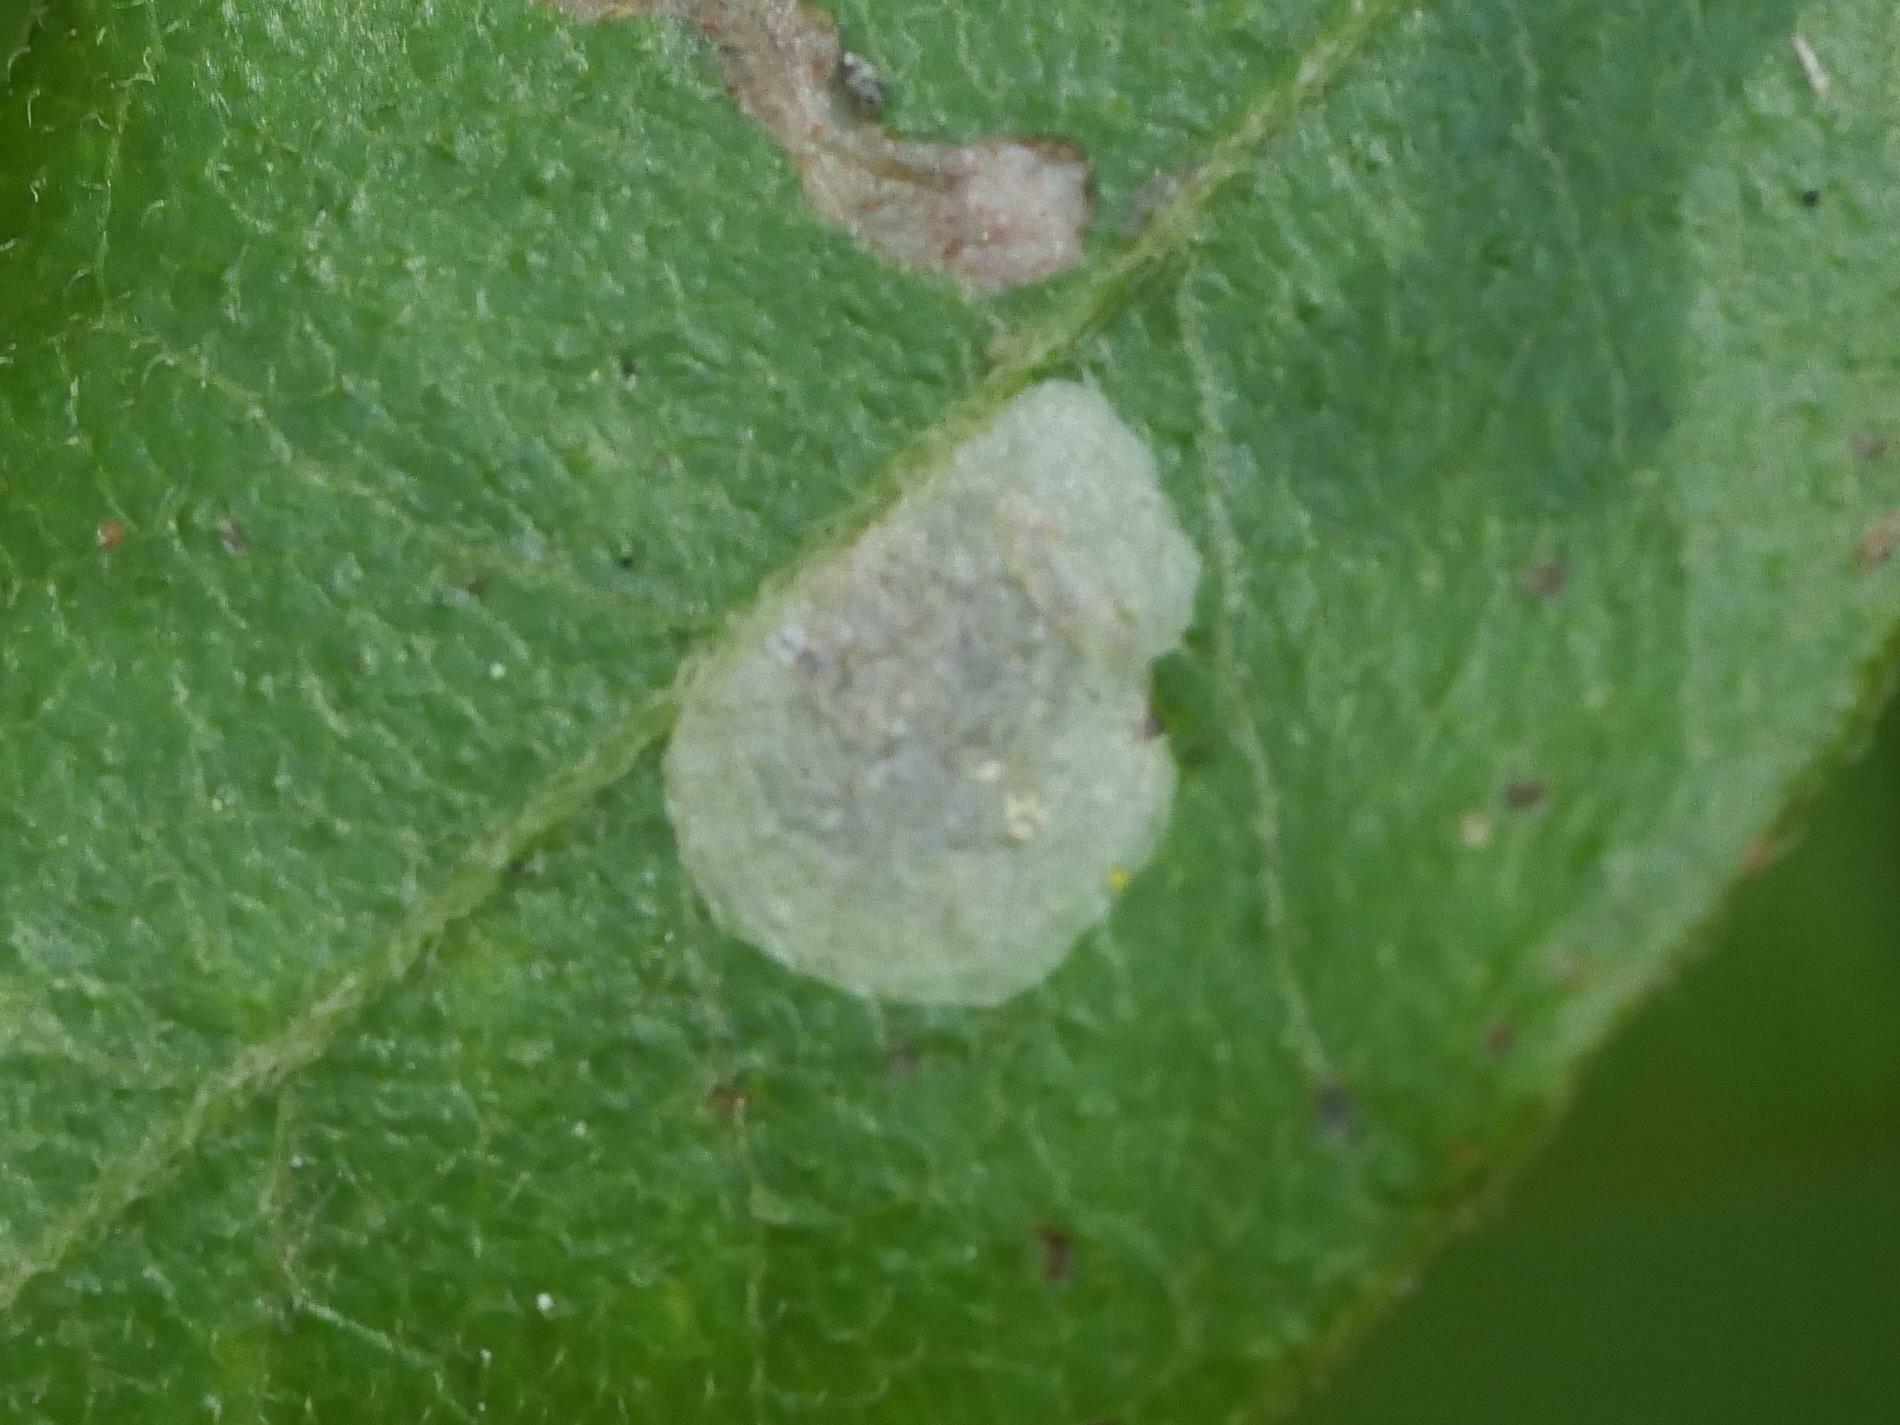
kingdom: Animalia
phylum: Arthropoda
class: Insecta
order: Lepidoptera
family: Gracillariidae
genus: Cameraria
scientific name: Cameraria picturatella
